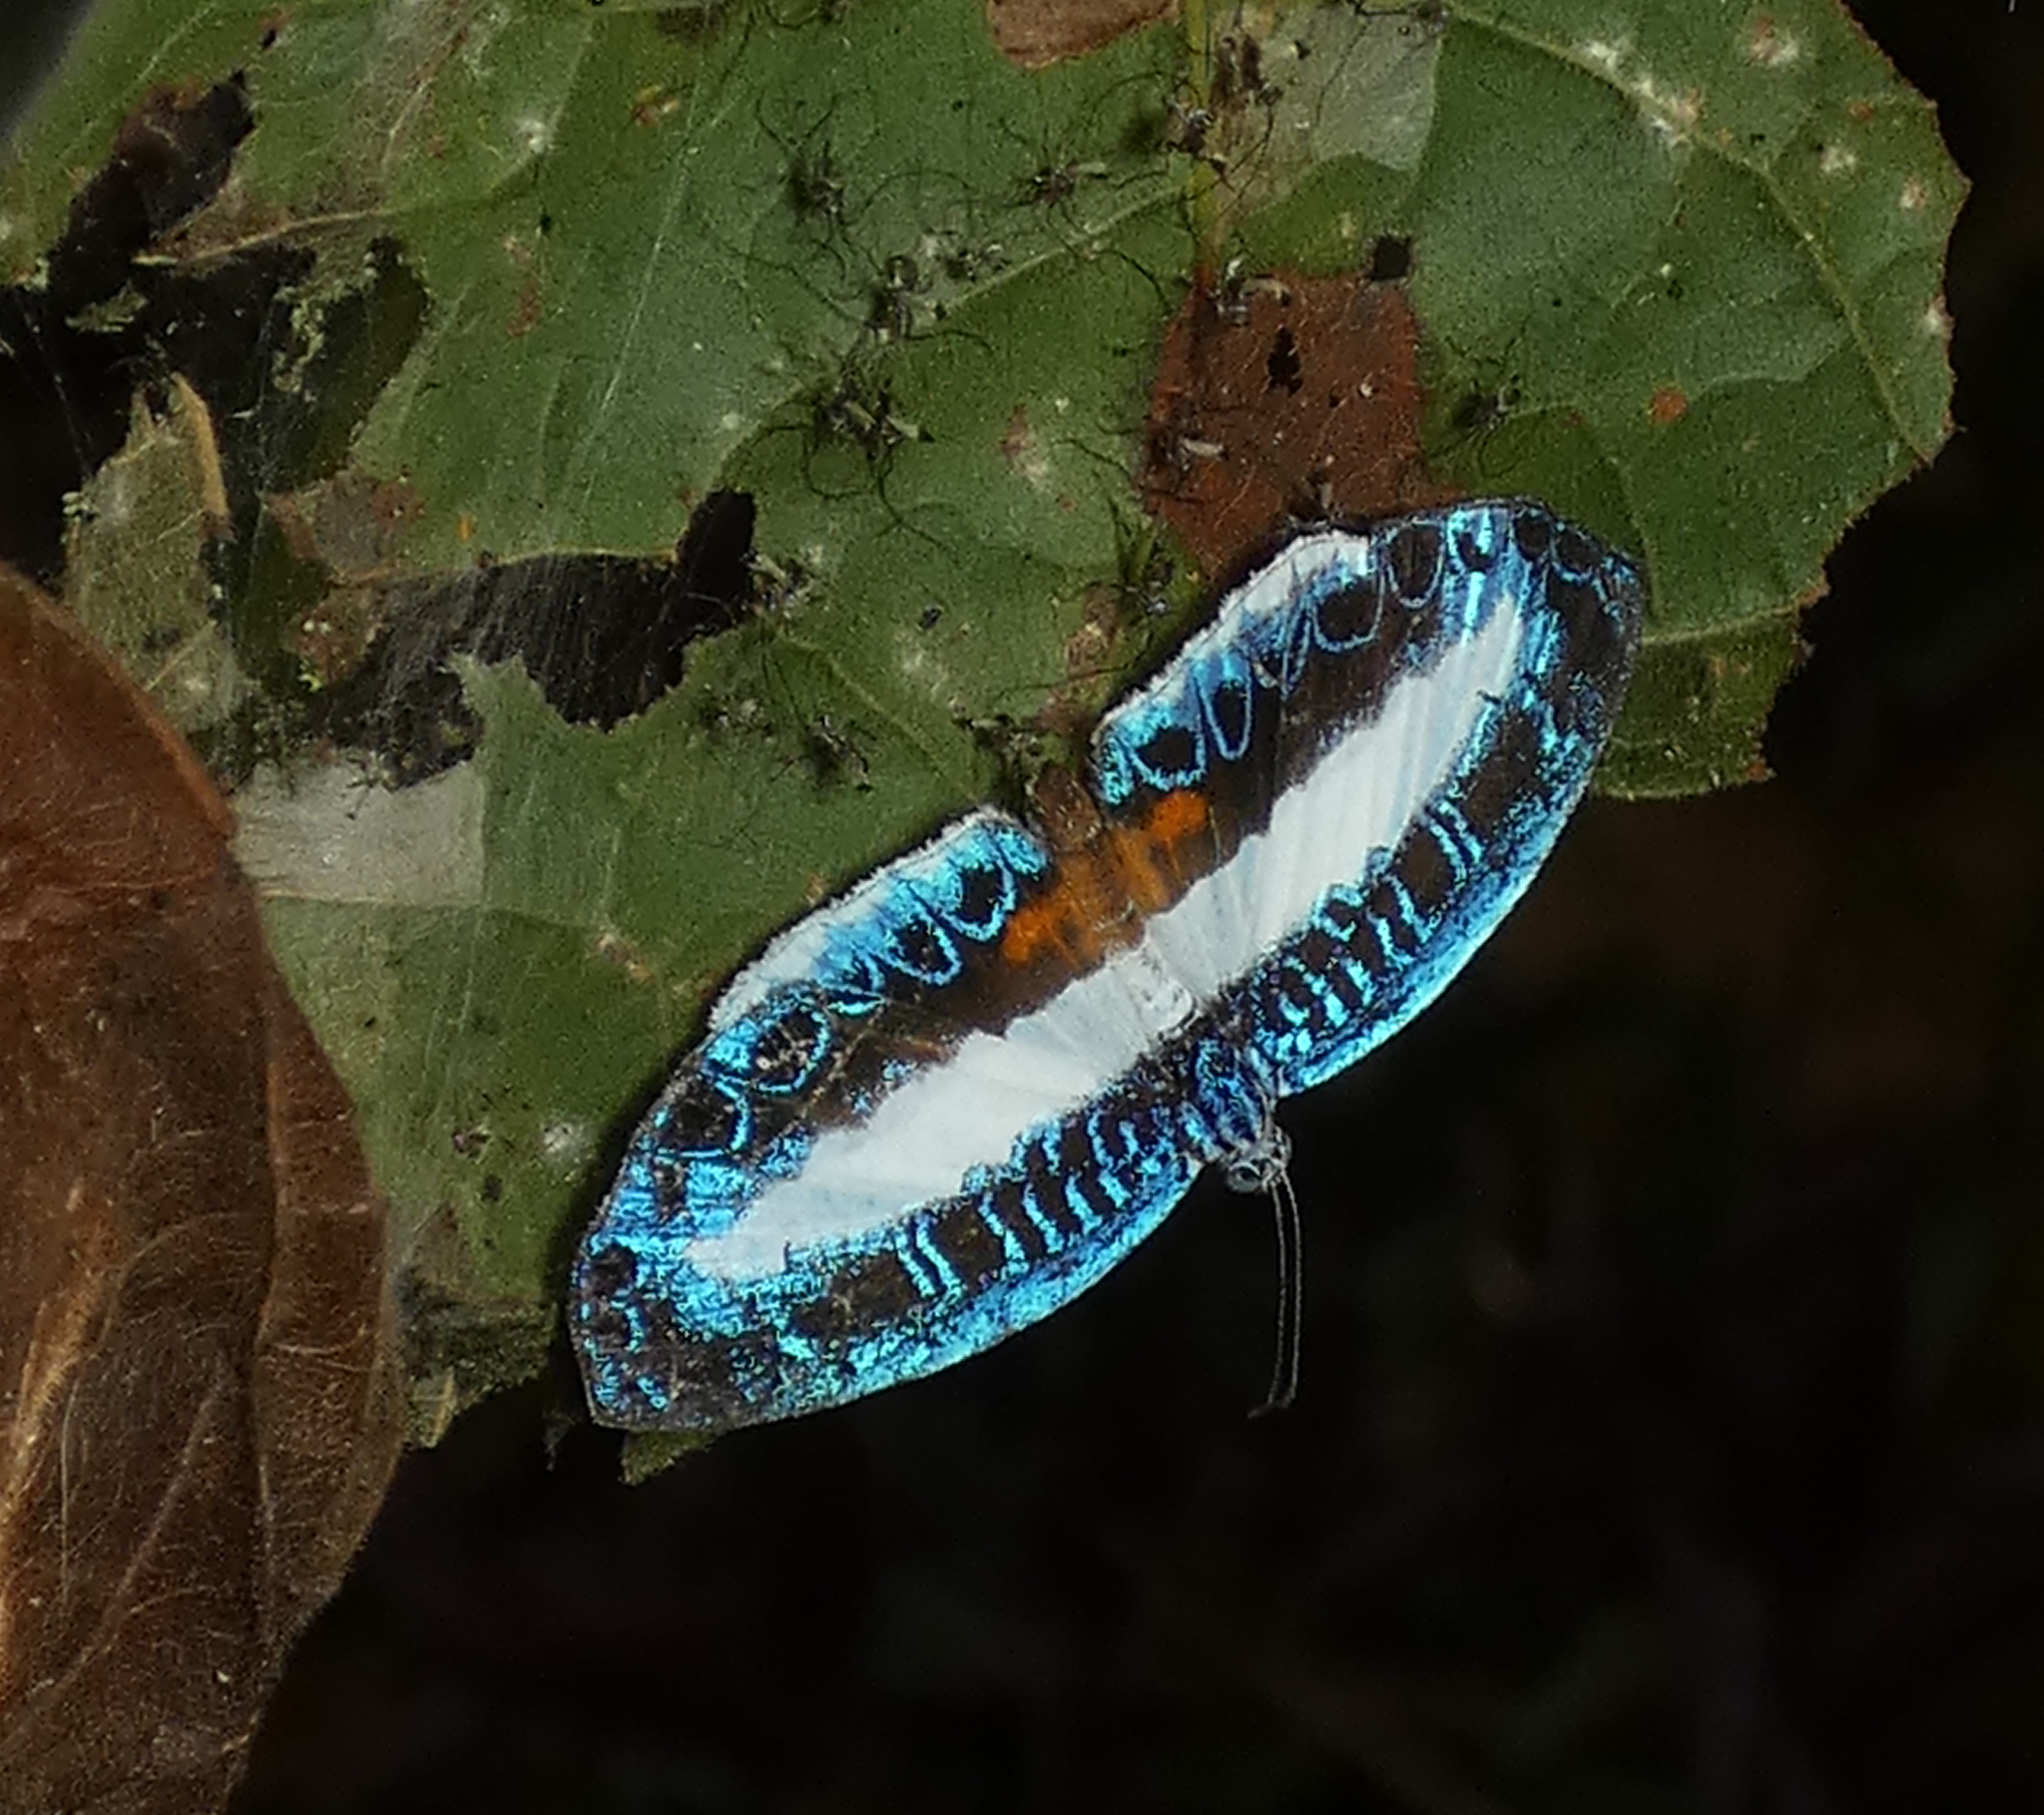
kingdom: Animalia
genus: Nymphidium
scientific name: Nymphidium mantus
